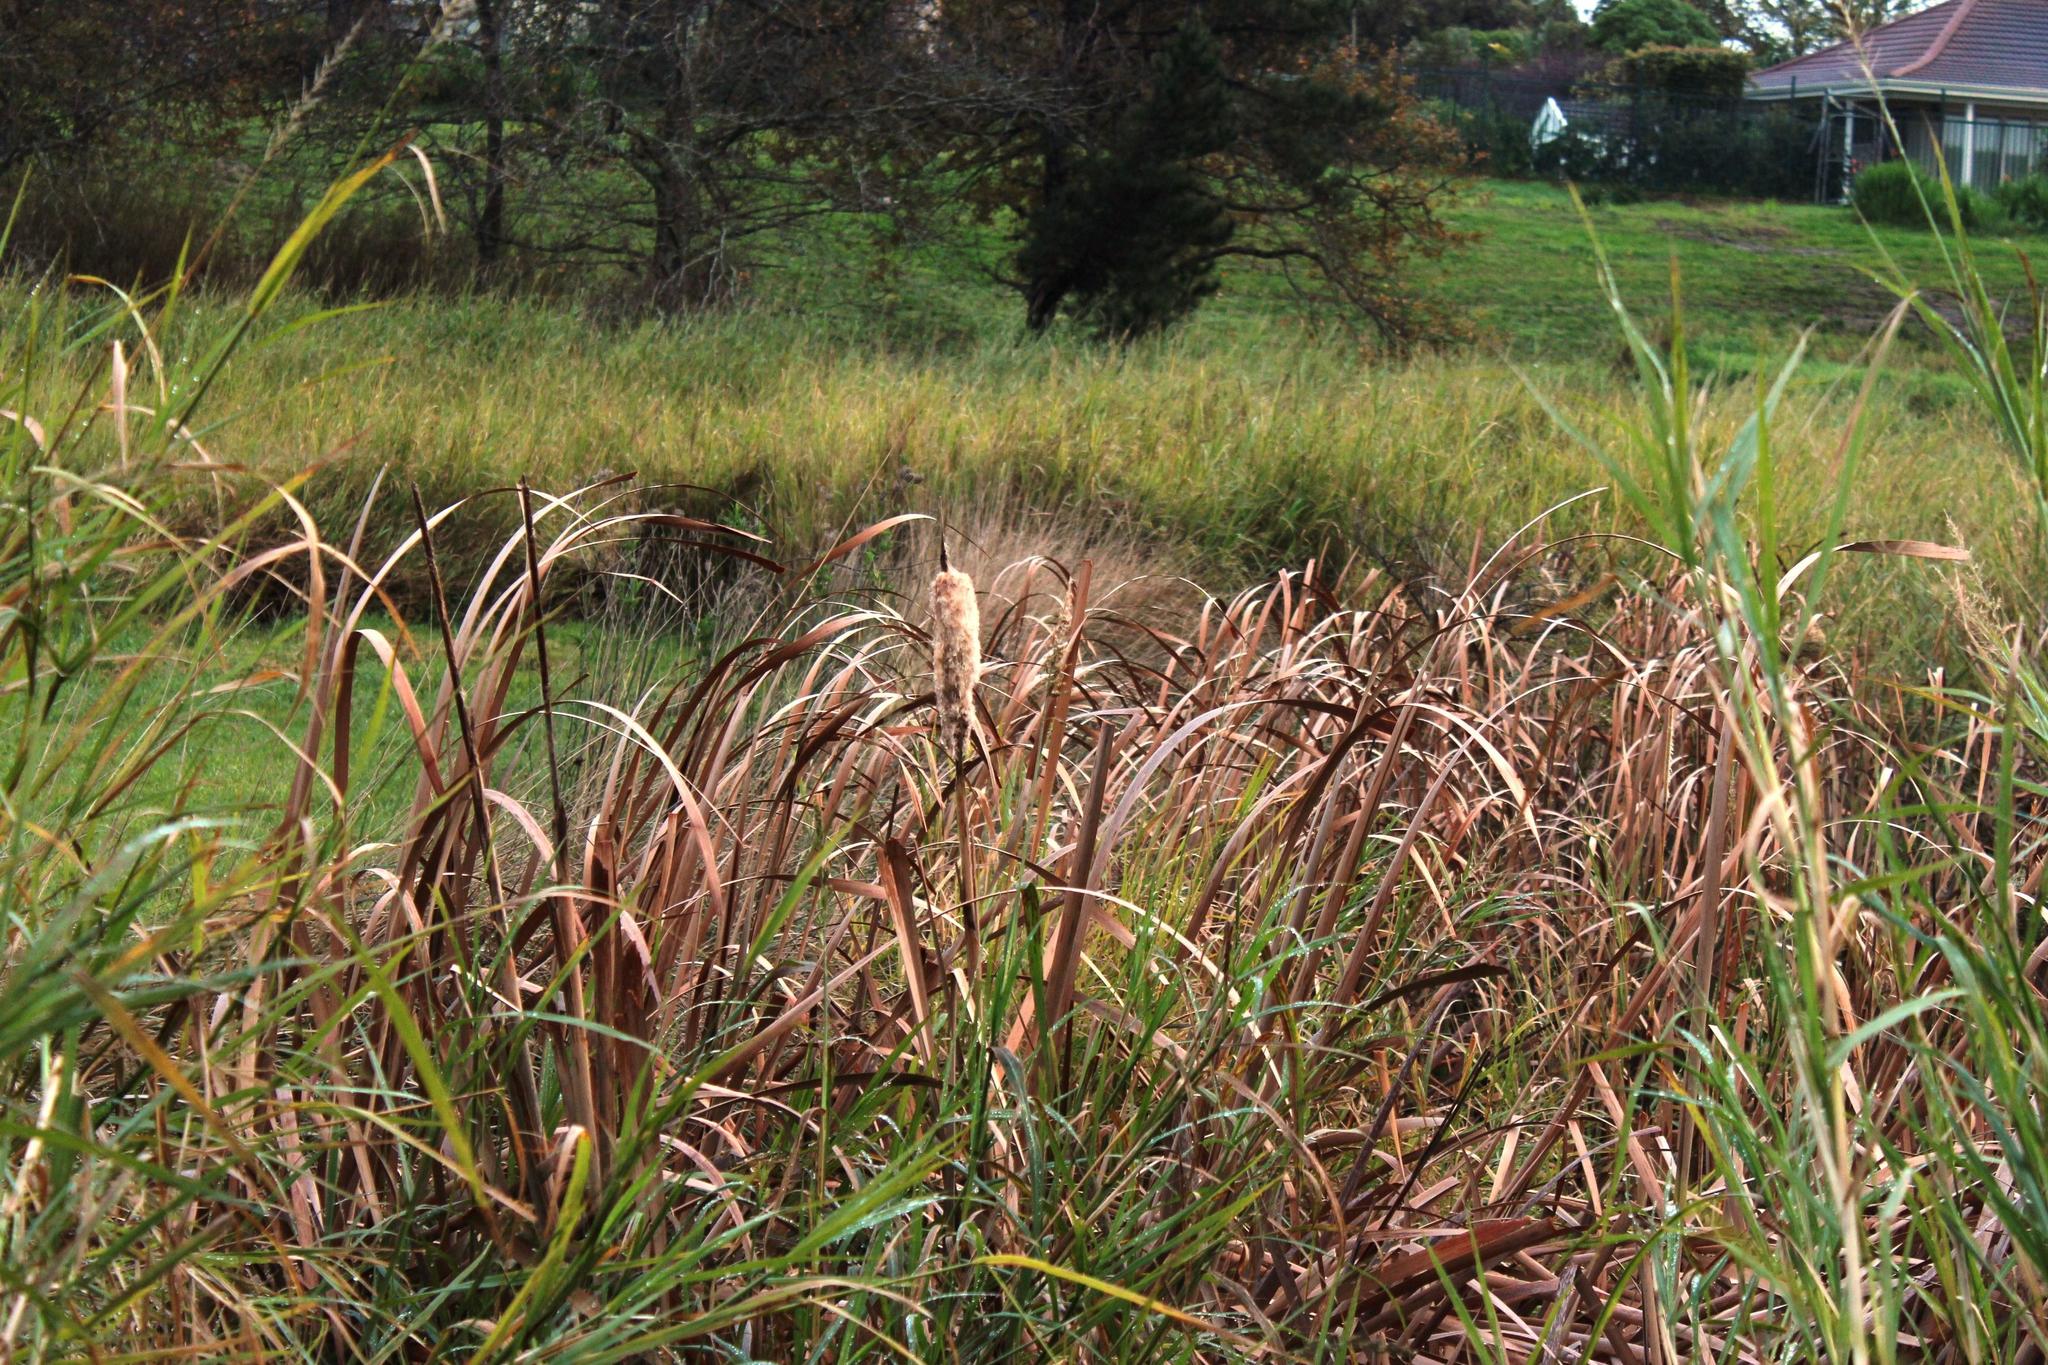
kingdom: Plantae
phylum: Tracheophyta
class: Liliopsida
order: Poales
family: Typhaceae
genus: Typha
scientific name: Typha capensis
